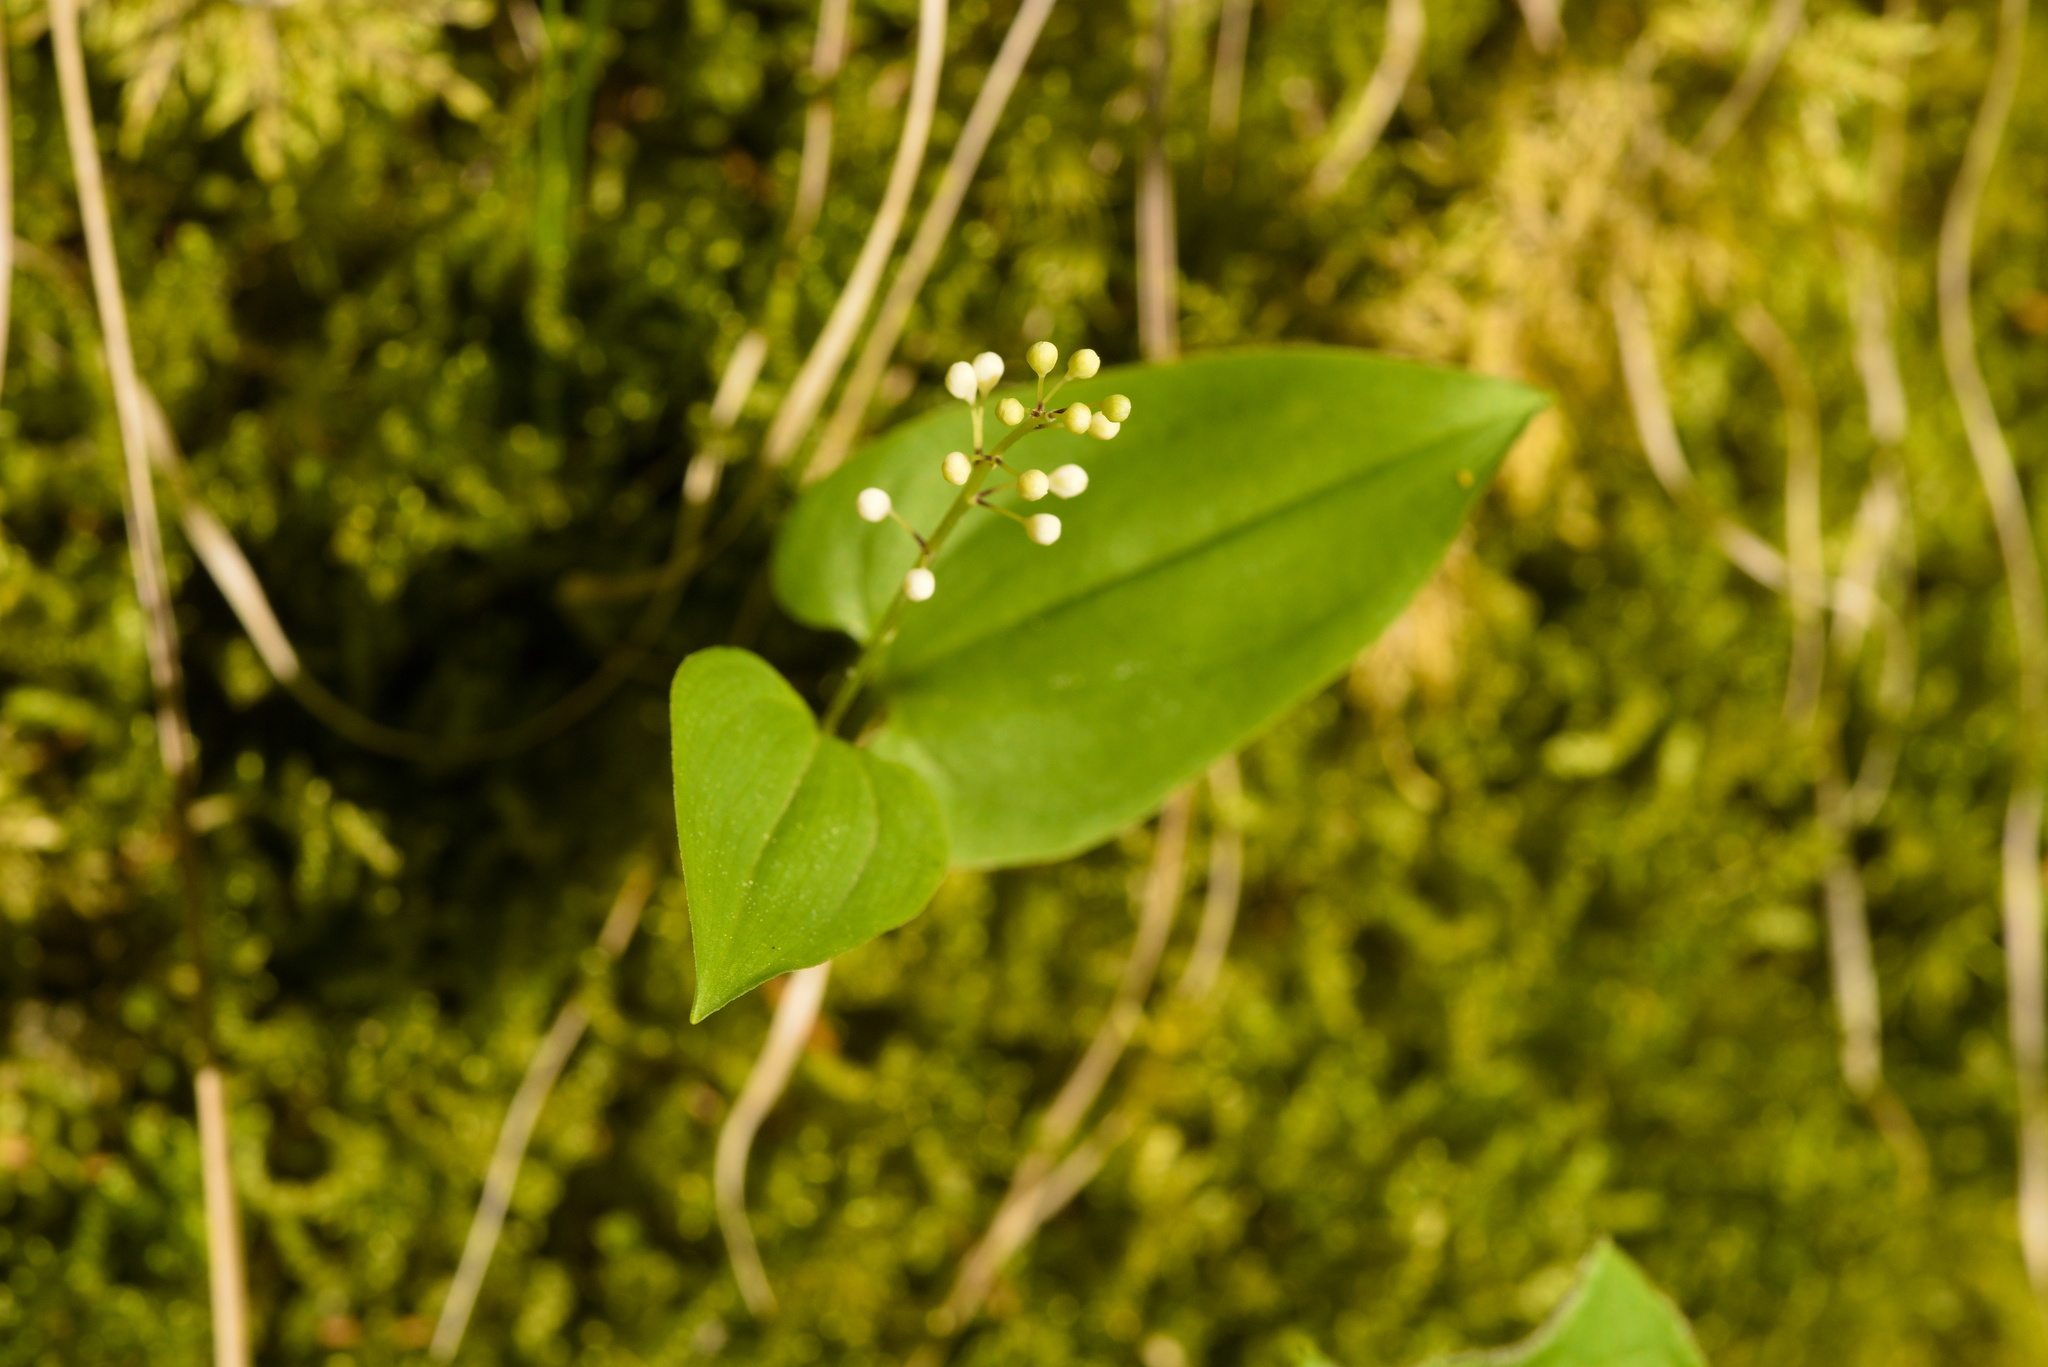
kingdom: Plantae
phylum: Tracheophyta
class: Liliopsida
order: Asparagales
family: Asparagaceae
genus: Maianthemum
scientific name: Maianthemum bifolium
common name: May lily
